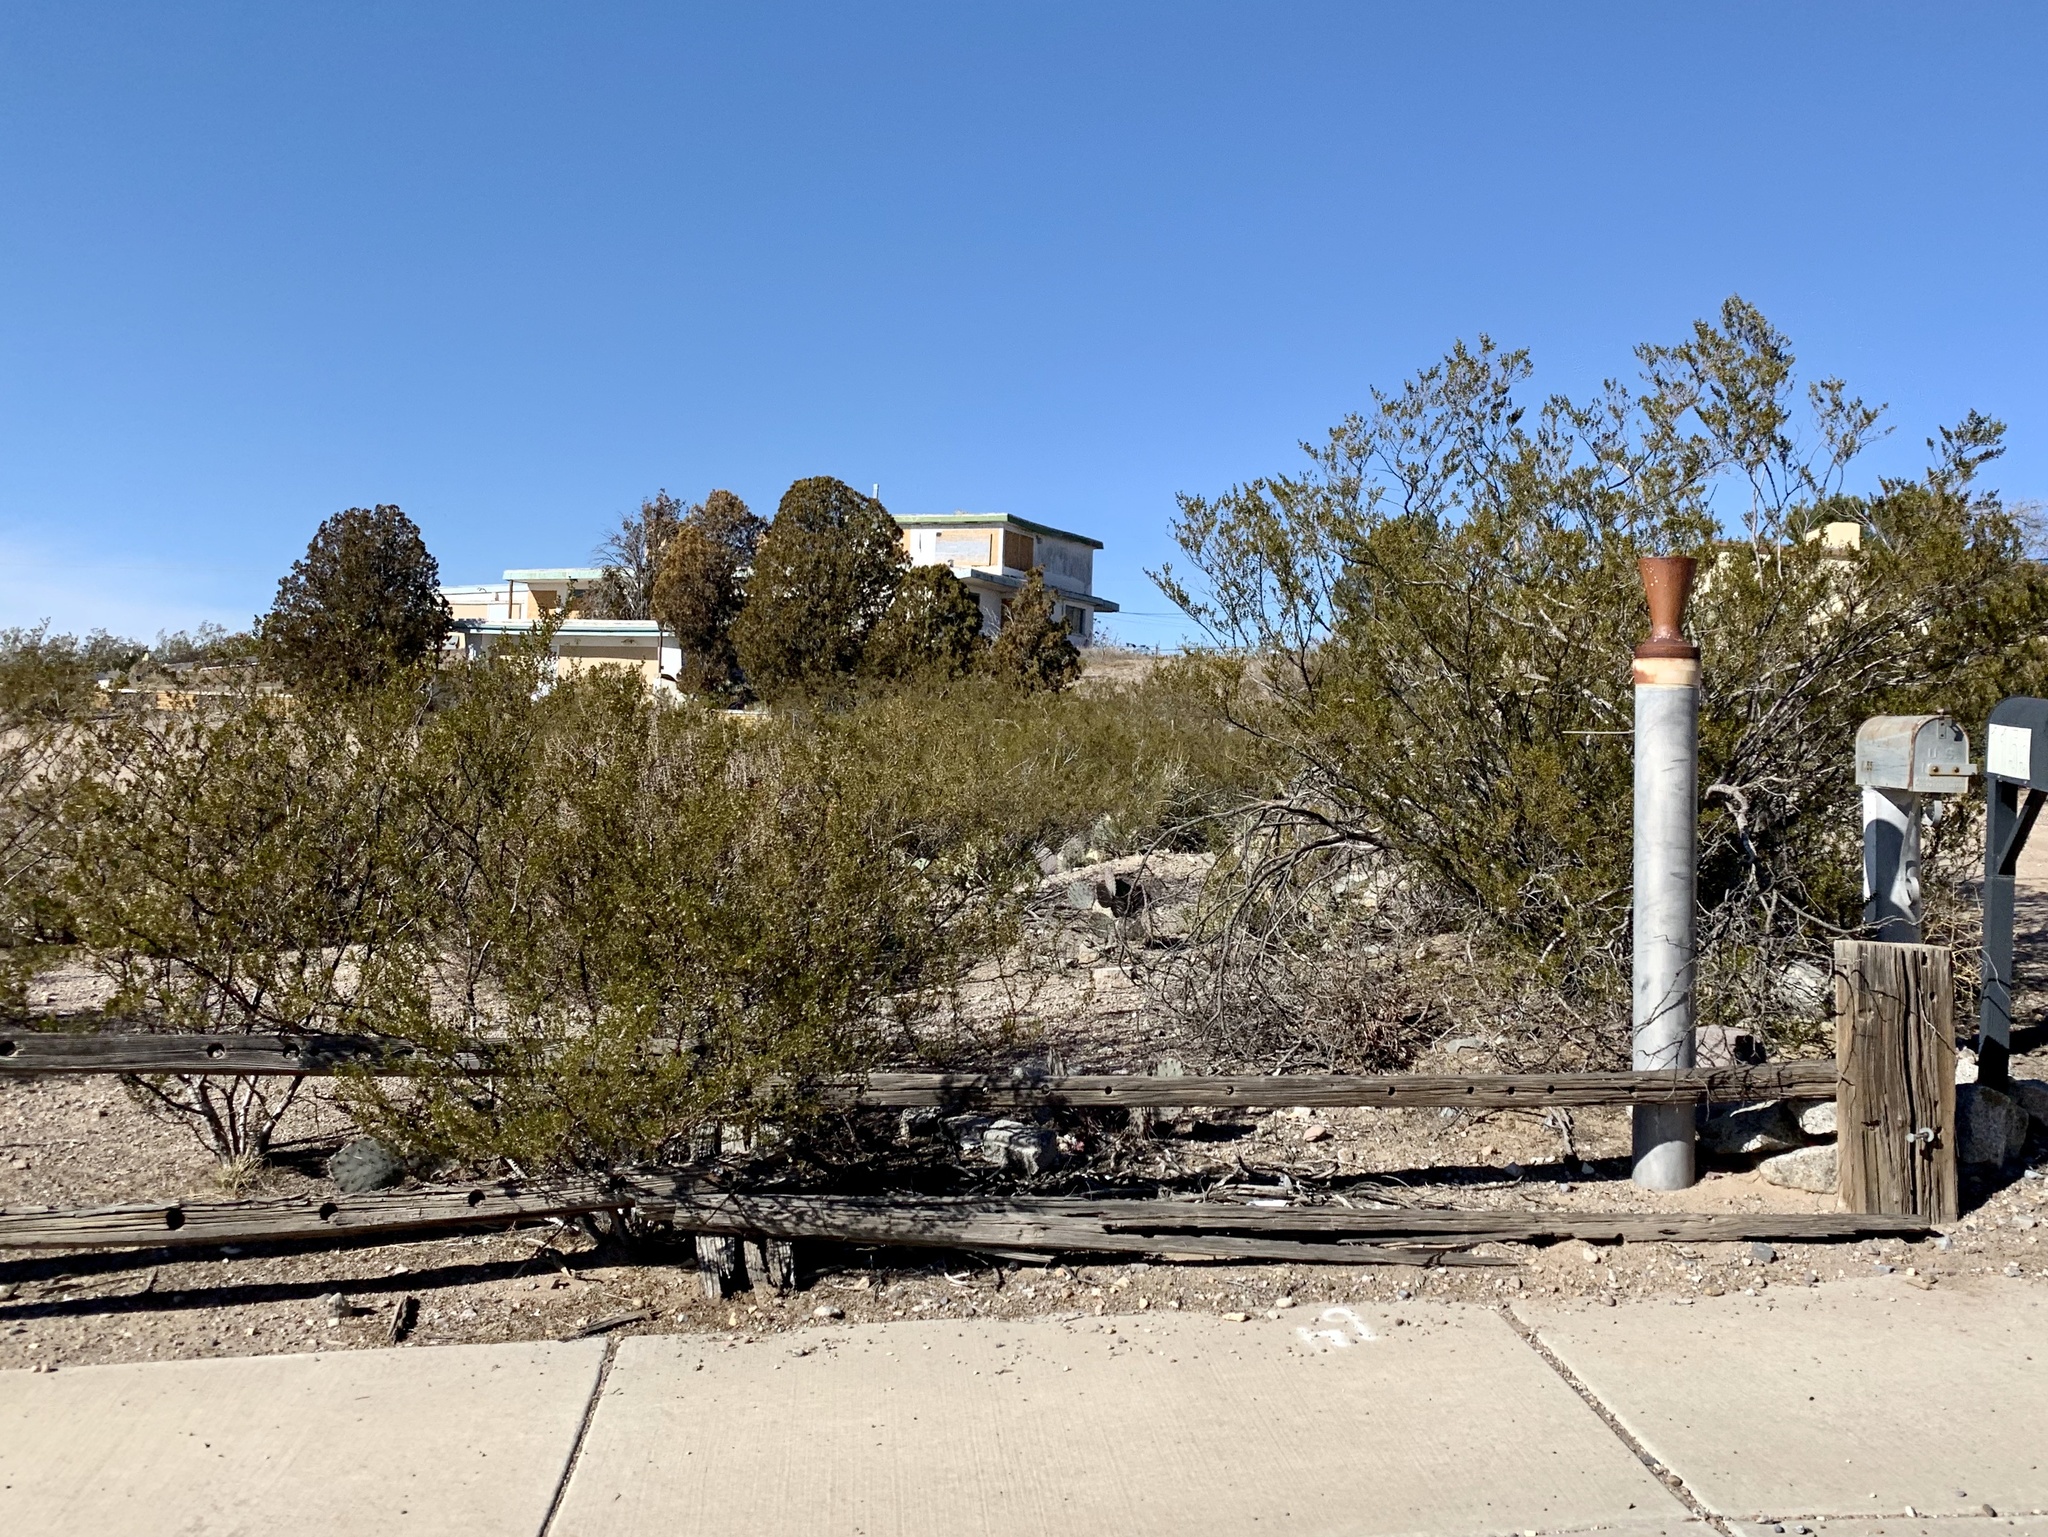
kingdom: Plantae
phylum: Tracheophyta
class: Magnoliopsida
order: Zygophyllales
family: Zygophyllaceae
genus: Larrea
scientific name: Larrea tridentata
